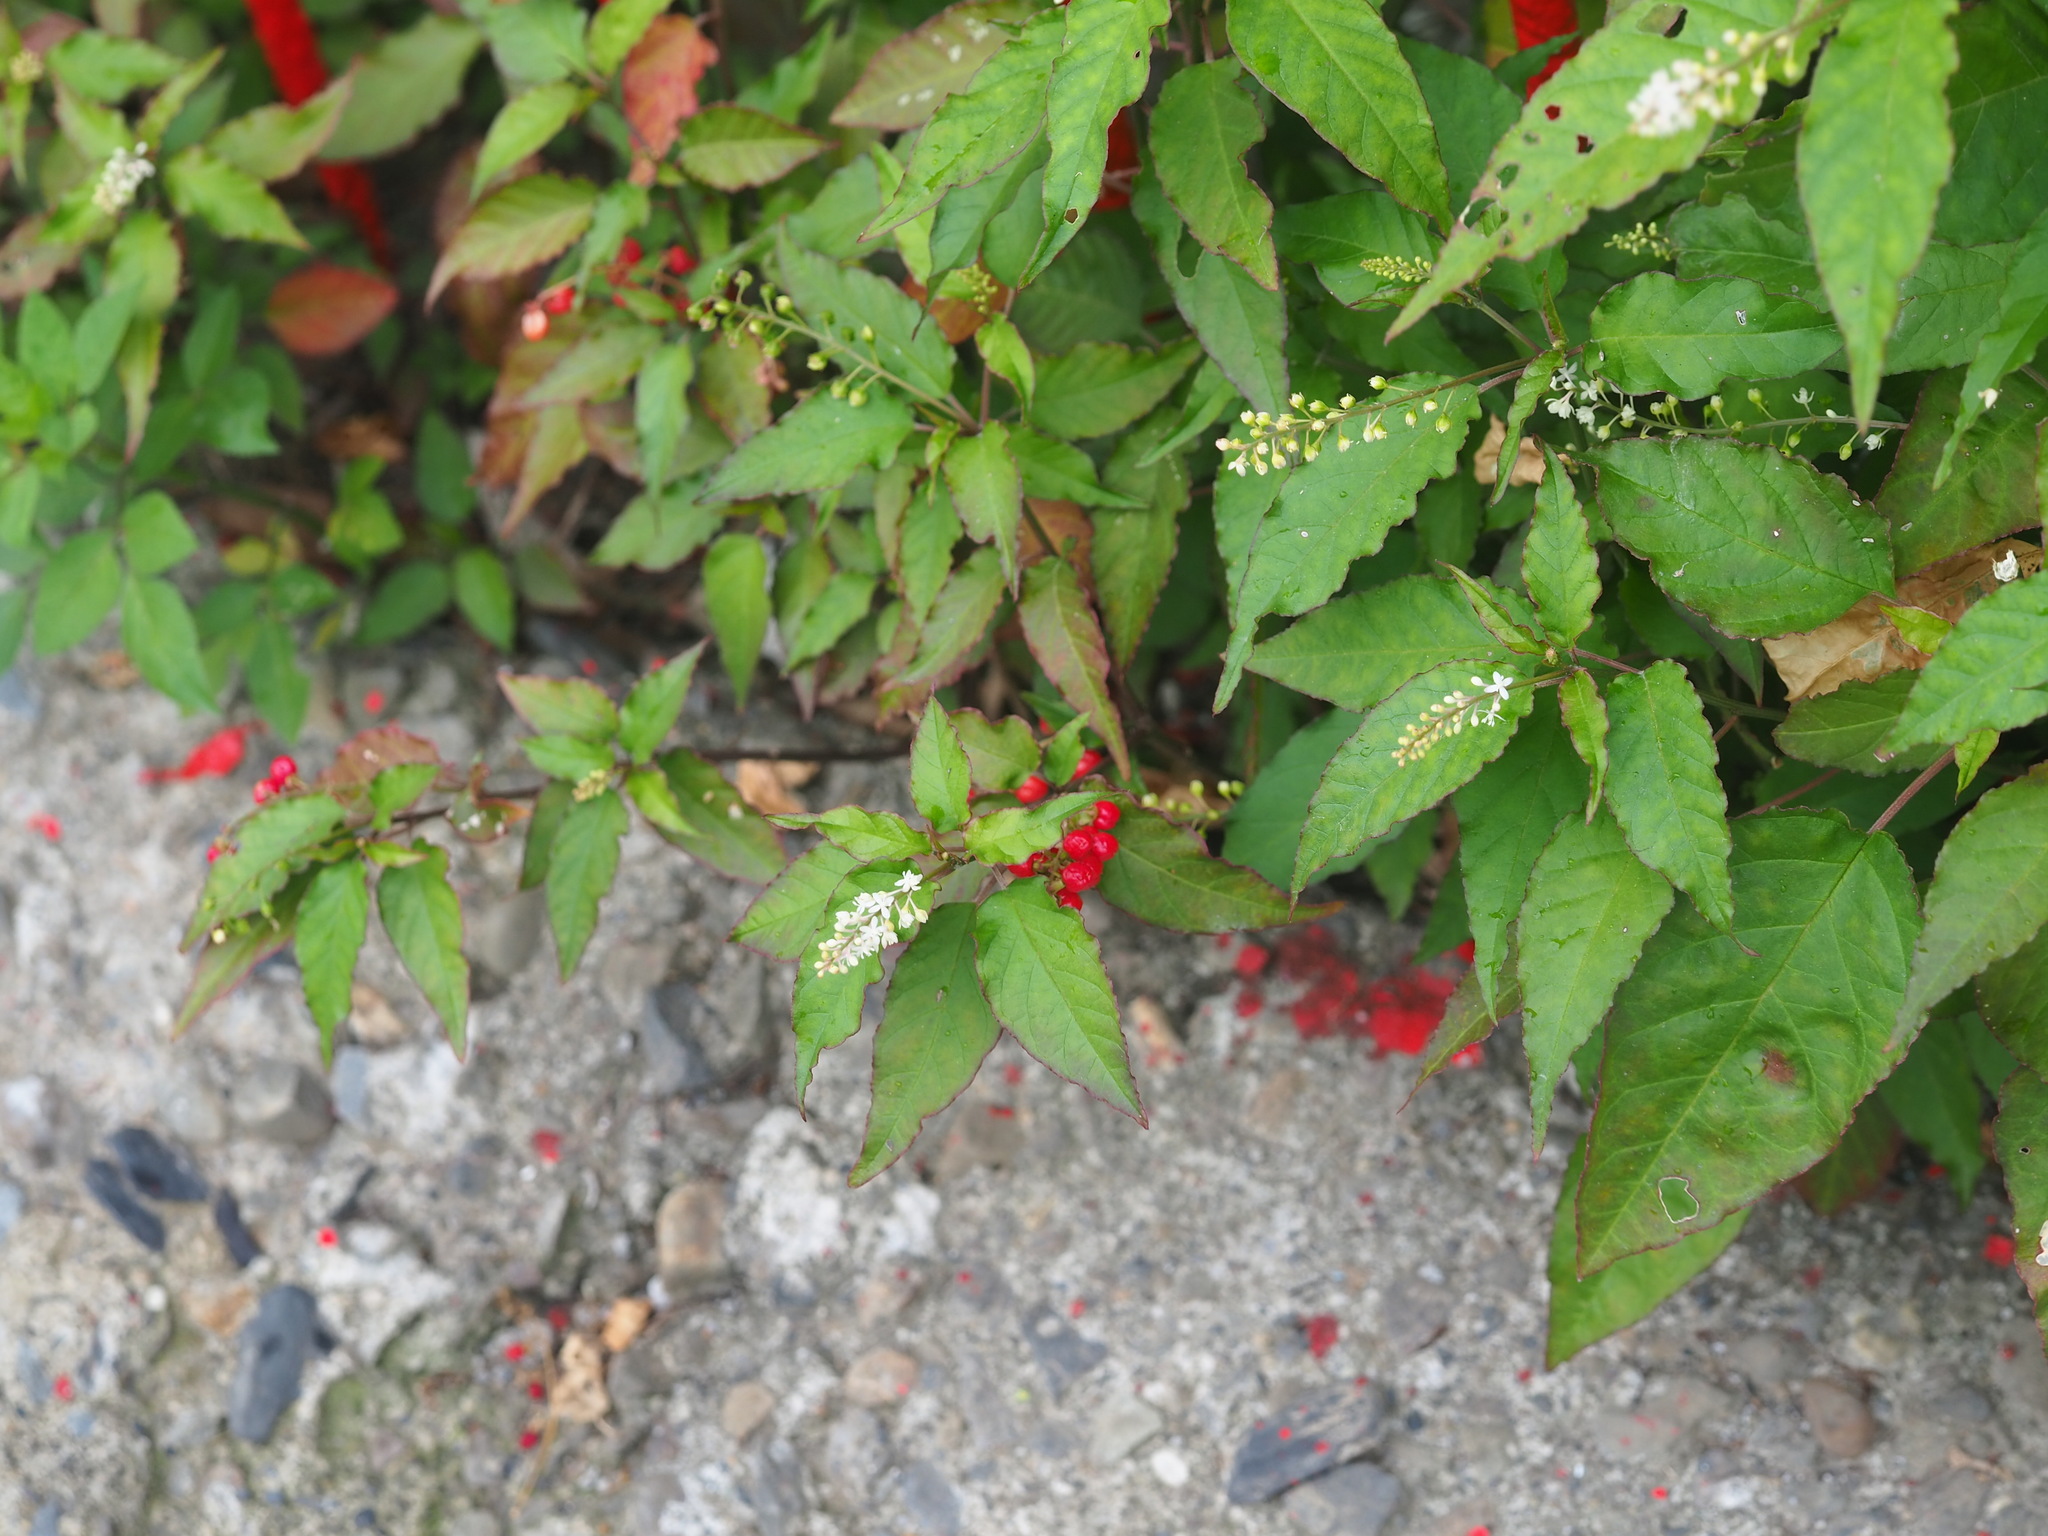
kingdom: Plantae
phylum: Tracheophyta
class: Magnoliopsida
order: Caryophyllales
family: Phytolaccaceae
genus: Rivina
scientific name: Rivina humilis
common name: Rougeplant
